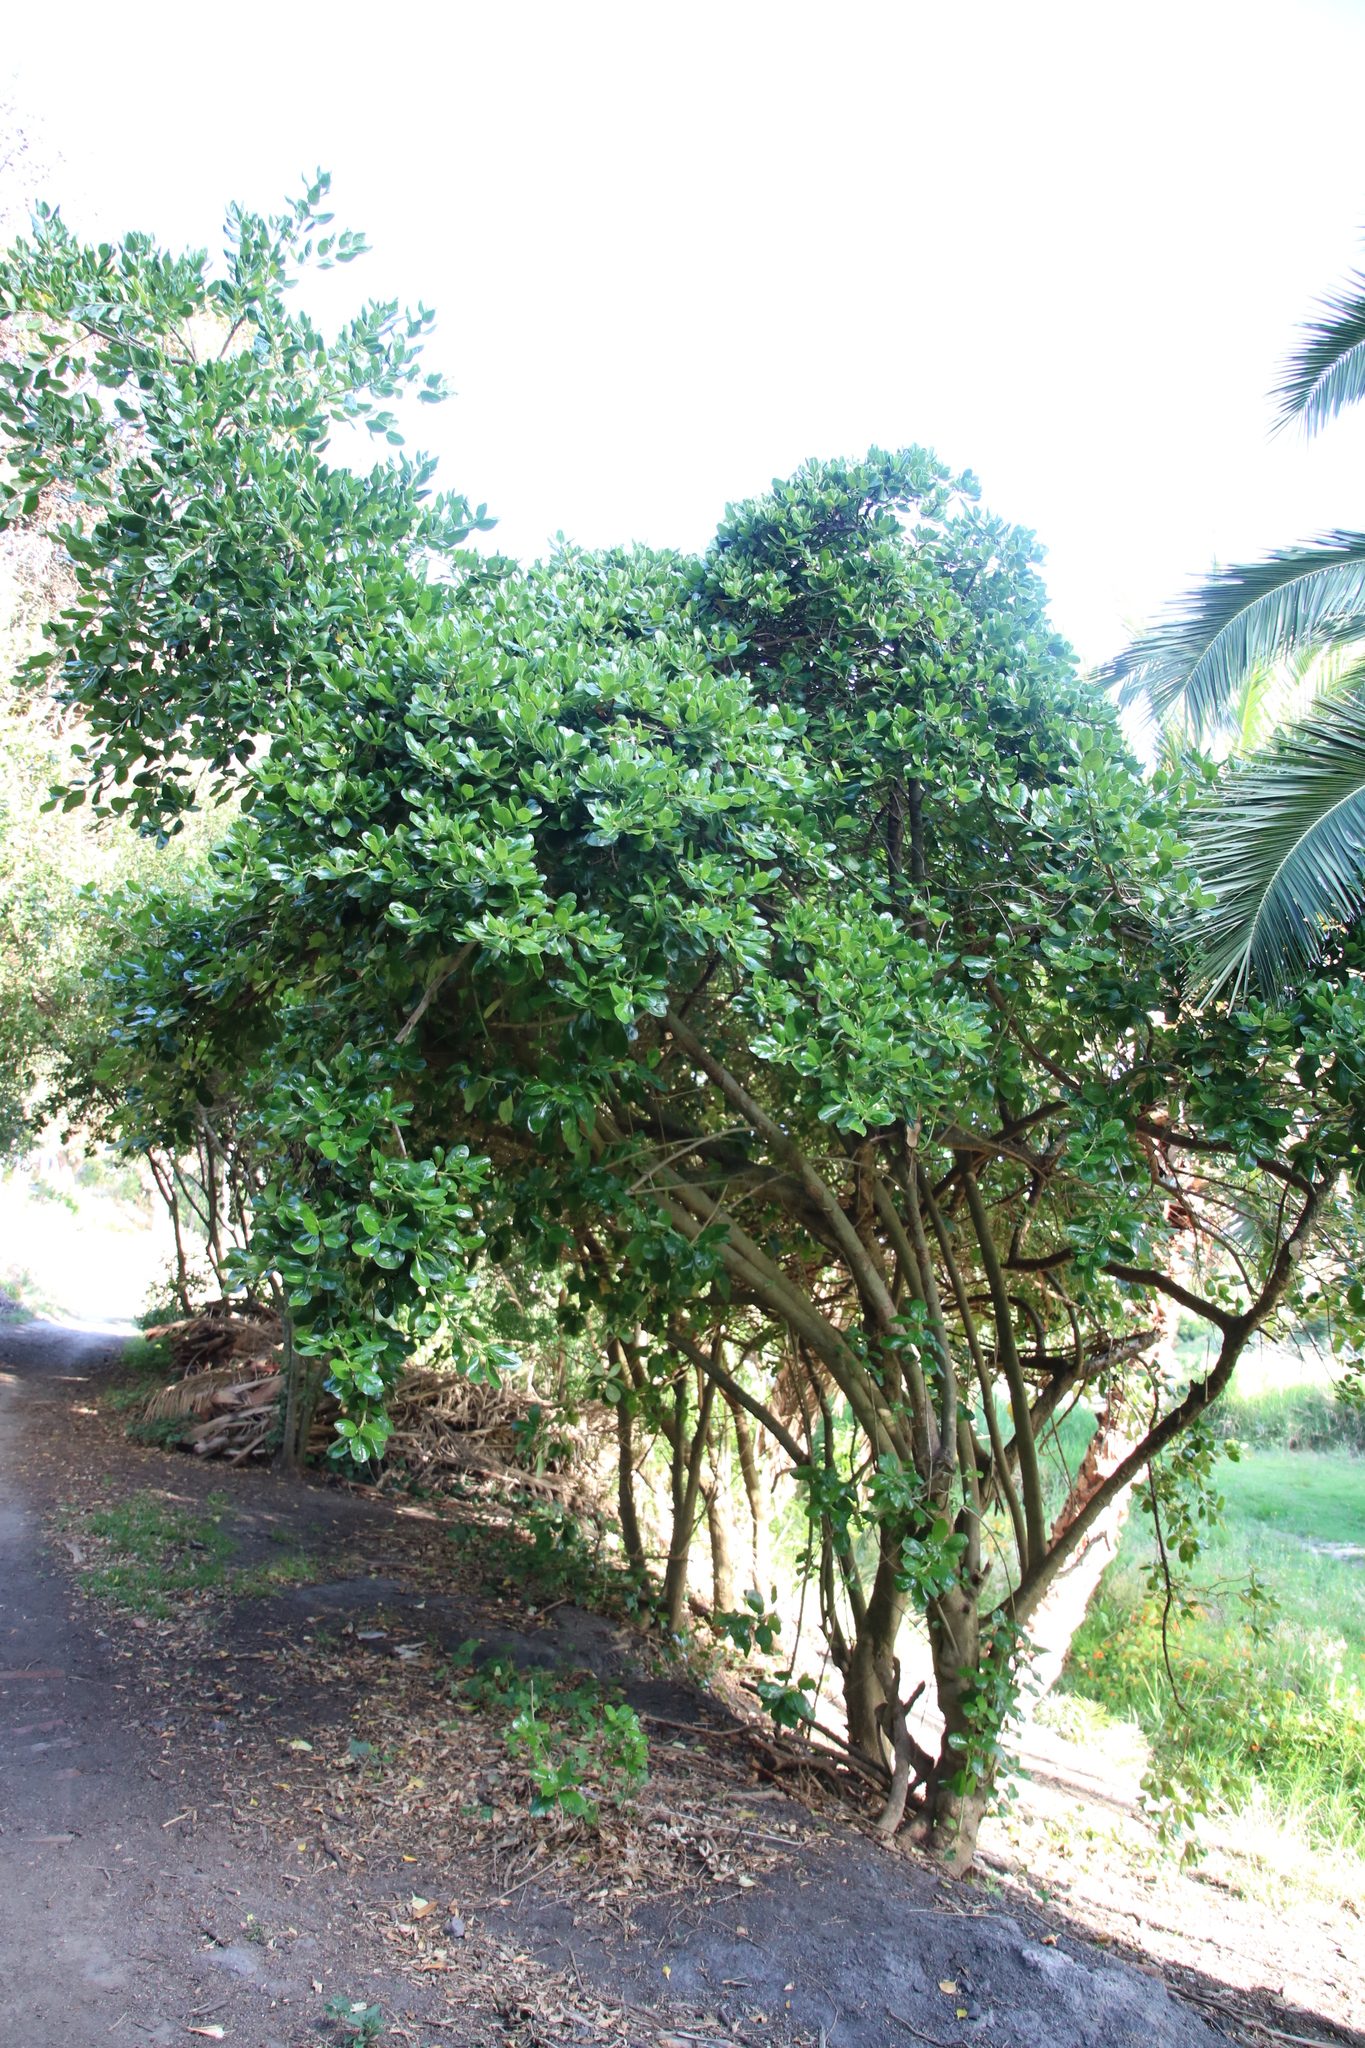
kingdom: Plantae
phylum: Tracheophyta
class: Magnoliopsida
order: Gentianales
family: Rubiaceae
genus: Coprosma
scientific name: Coprosma repens
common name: Tree bedstraw
